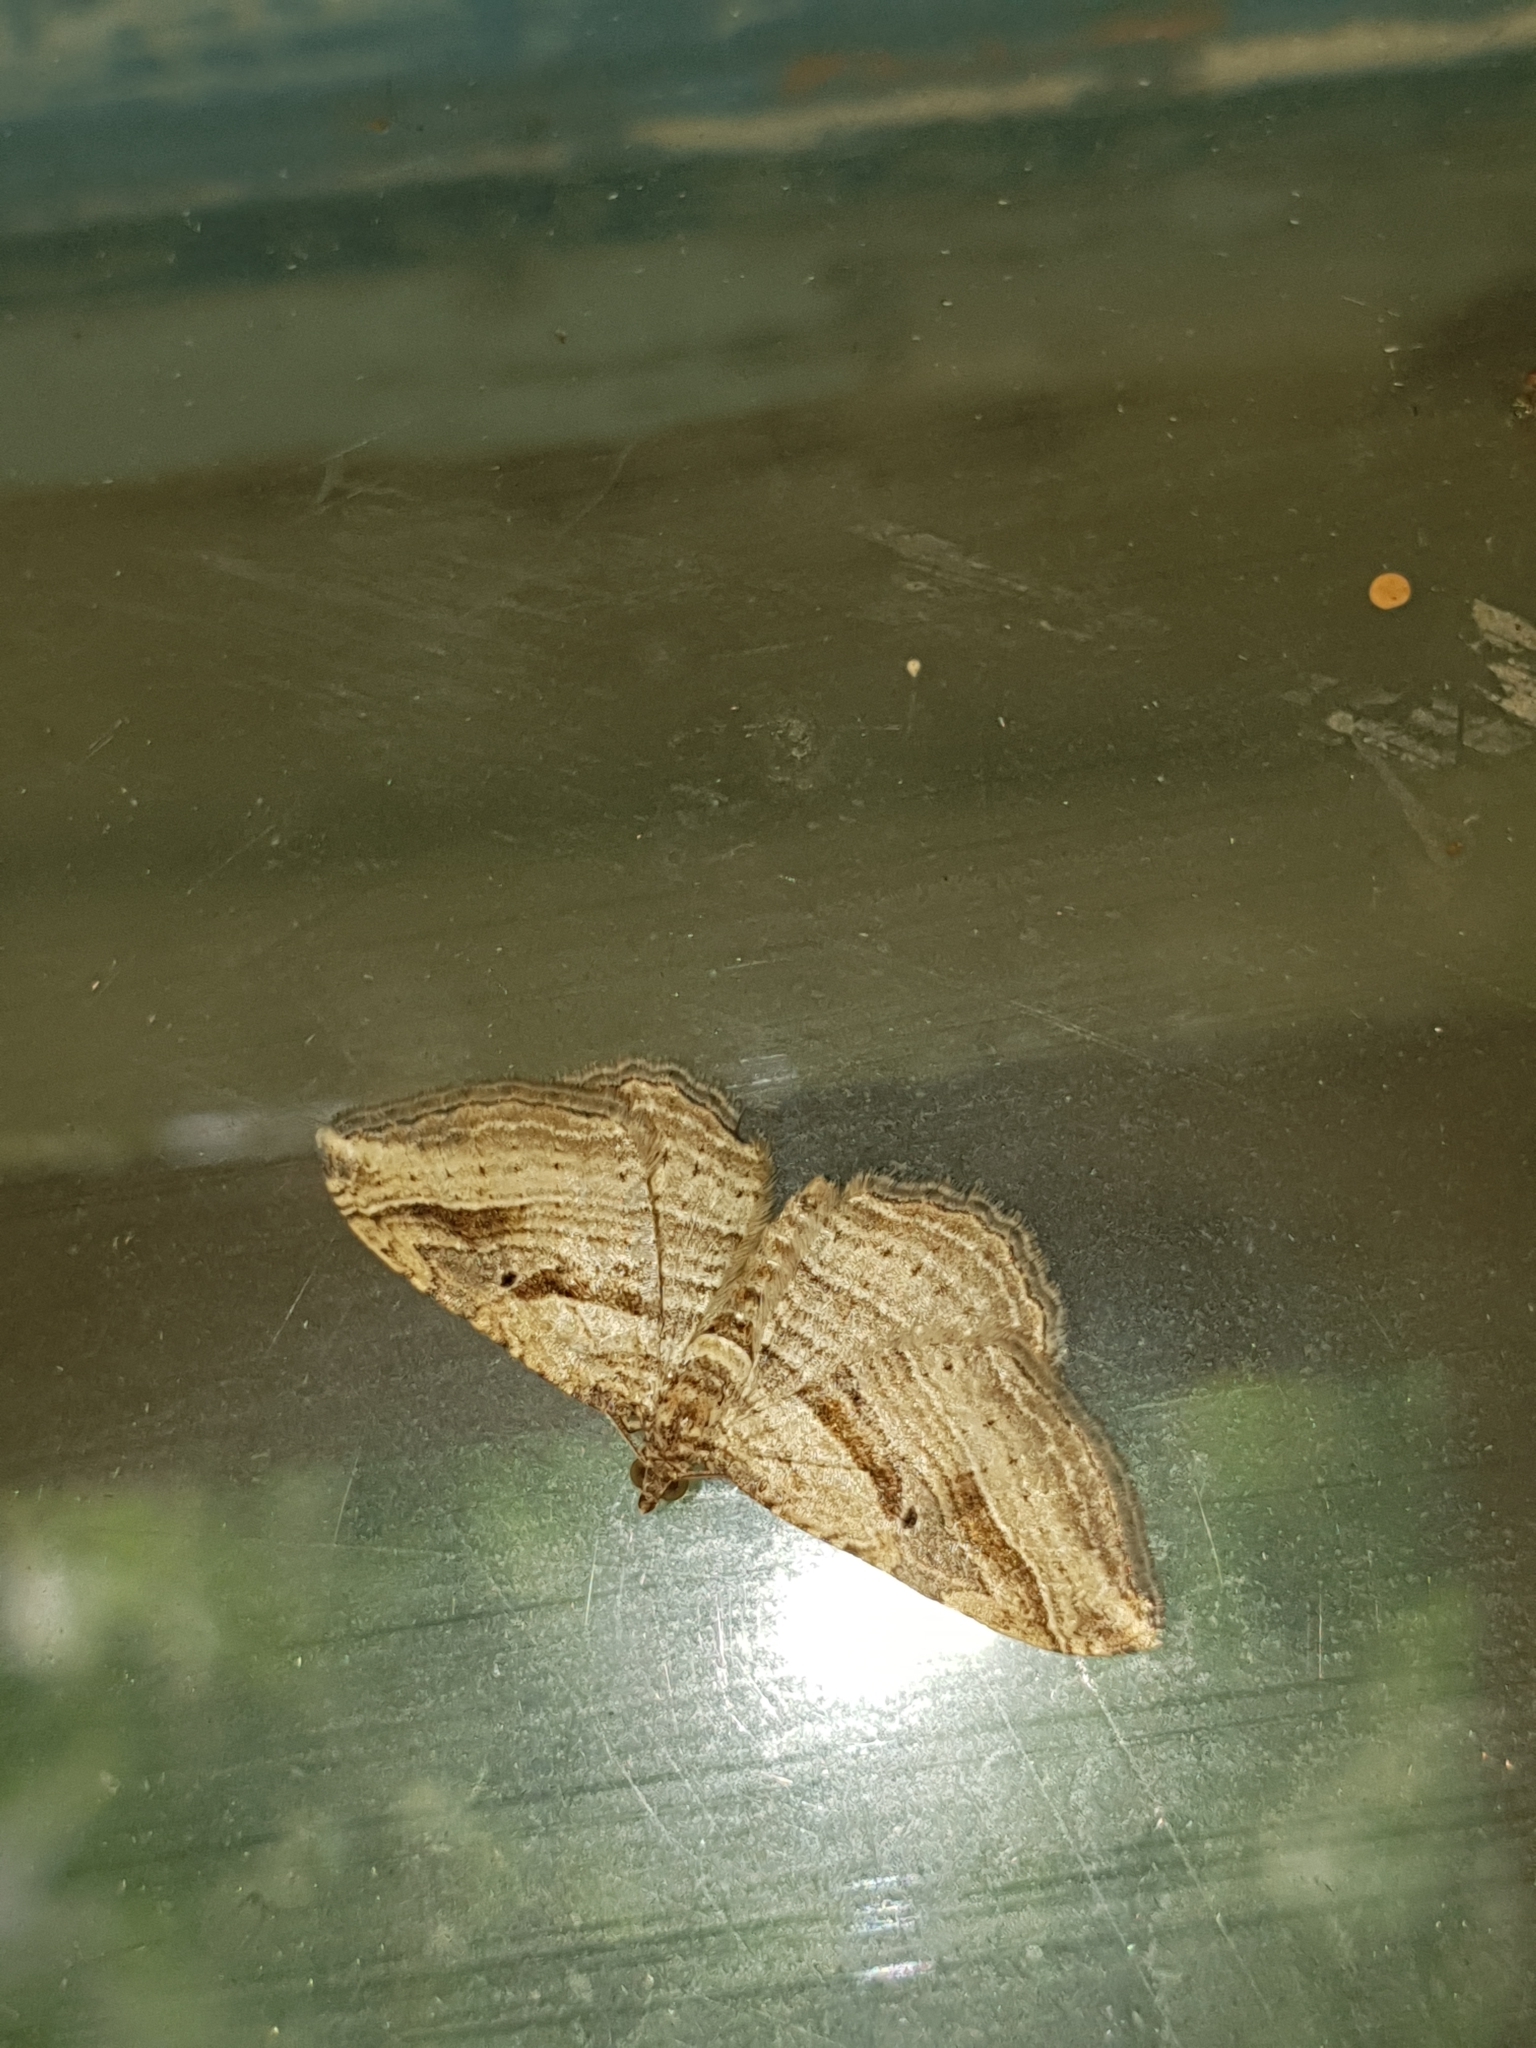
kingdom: Animalia
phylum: Arthropoda
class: Insecta
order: Lepidoptera
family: Geometridae
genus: Costaconvexa
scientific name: Costaconvexa polygrammata
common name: Many-lined
